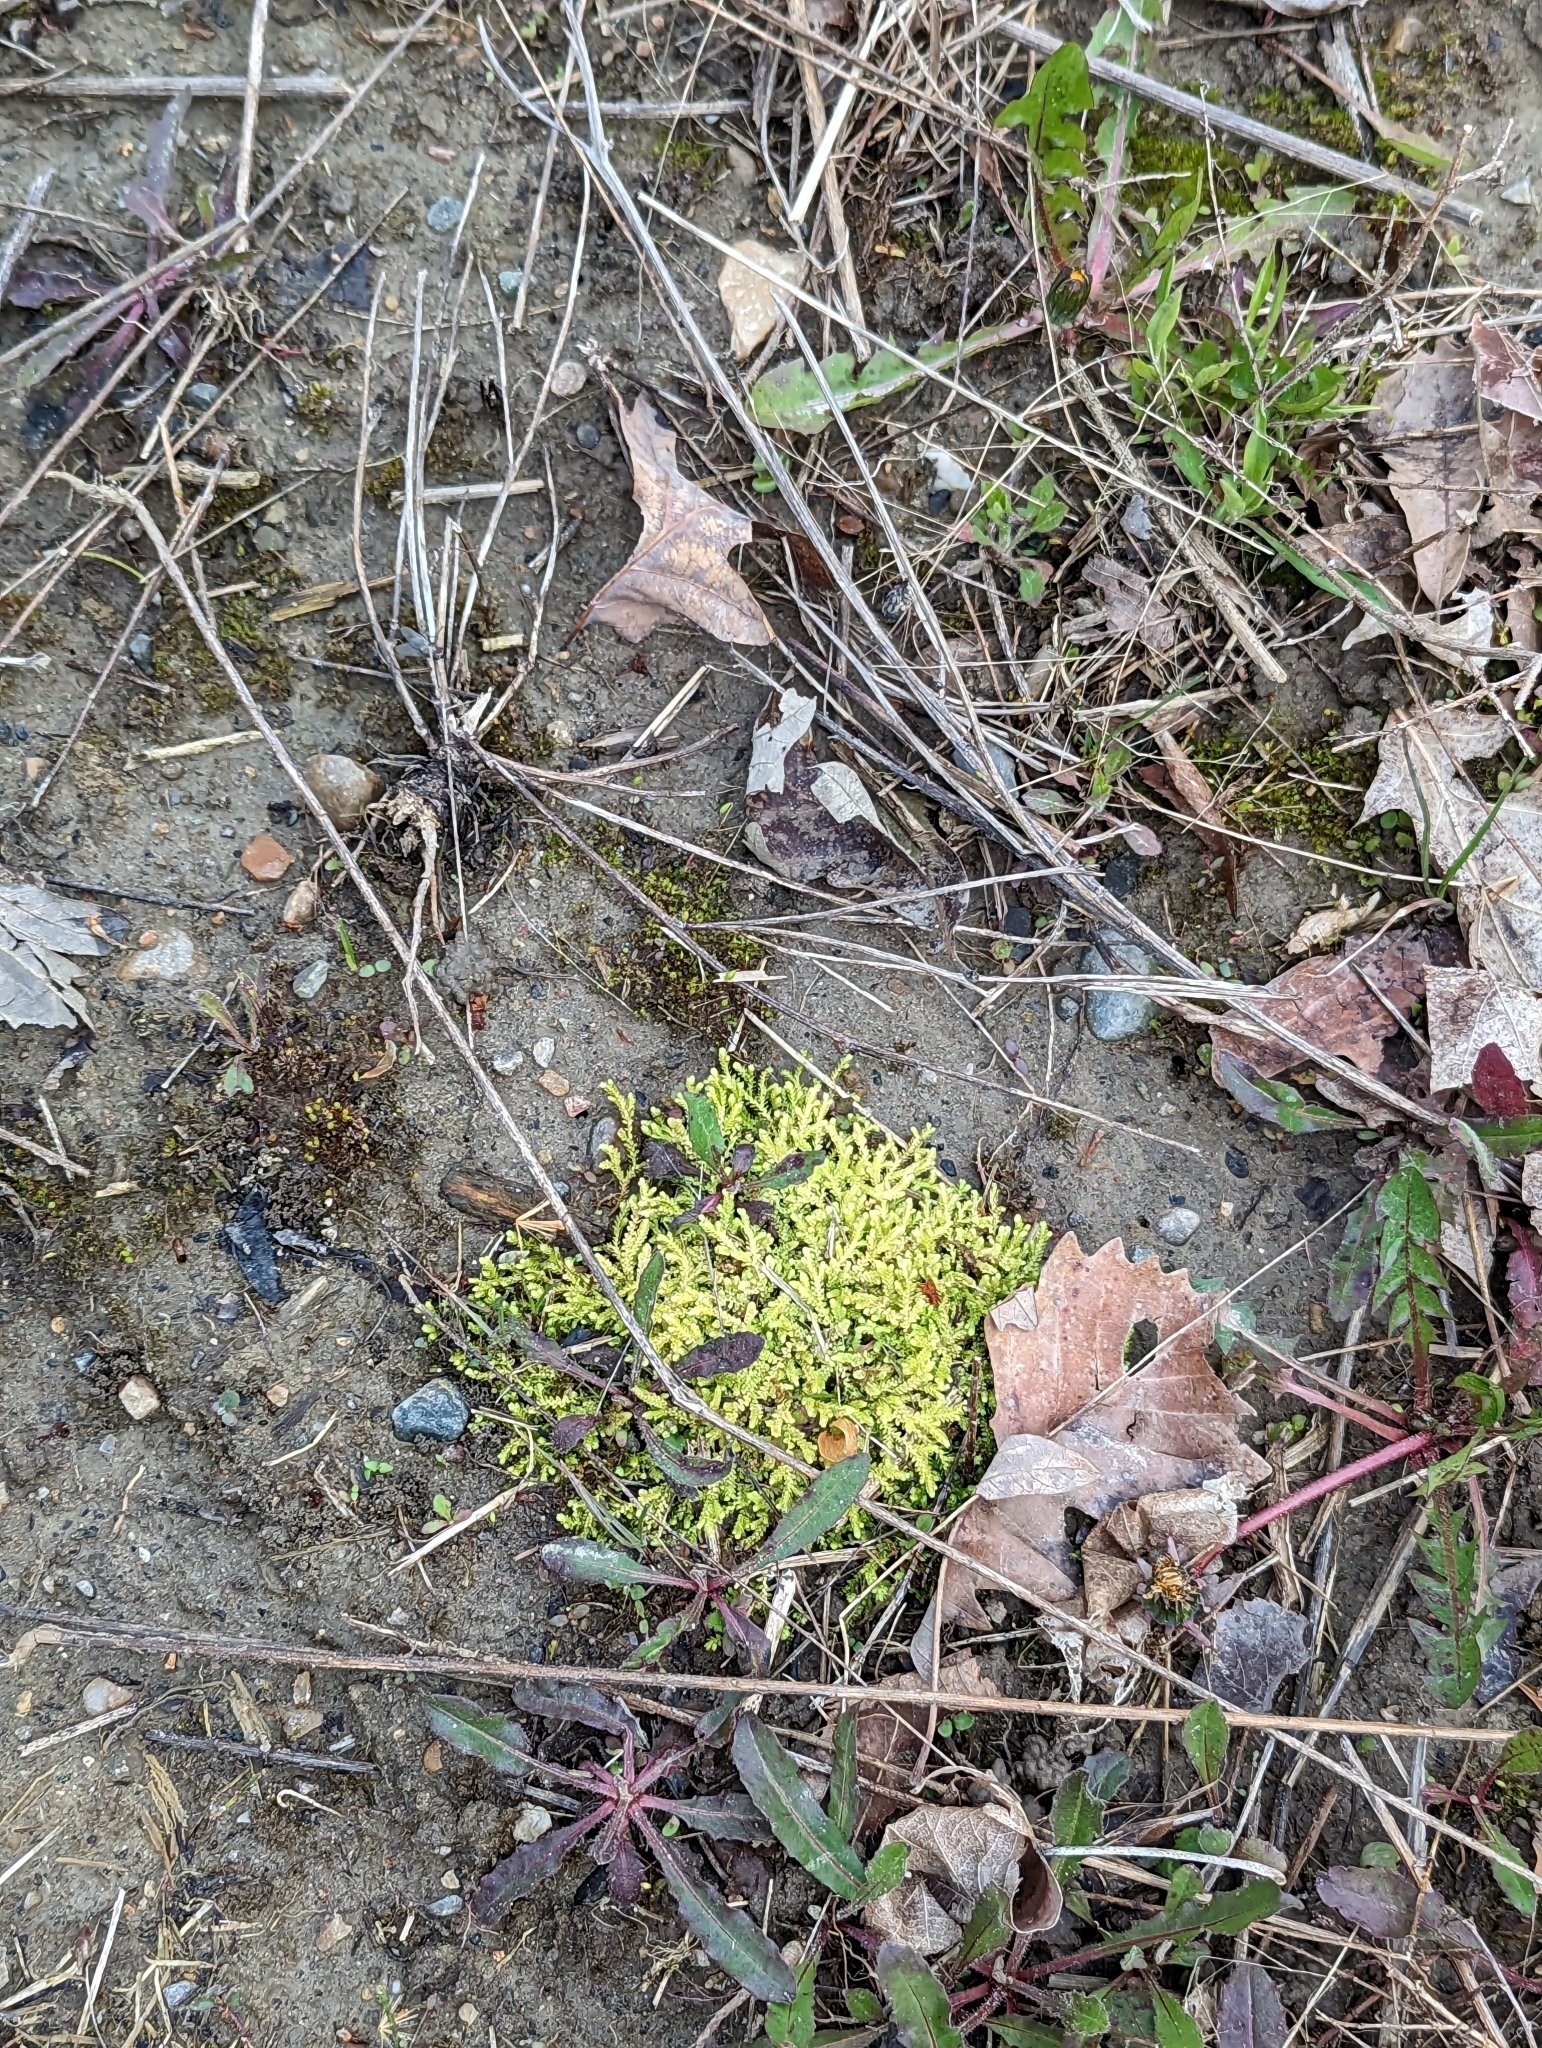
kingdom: Plantae
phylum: Tracheophyta
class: Lycopodiopsida
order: Selaginellales
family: Selaginellaceae
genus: Selaginella
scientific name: Selaginella eclipes
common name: Buck's meadow spikemoss
